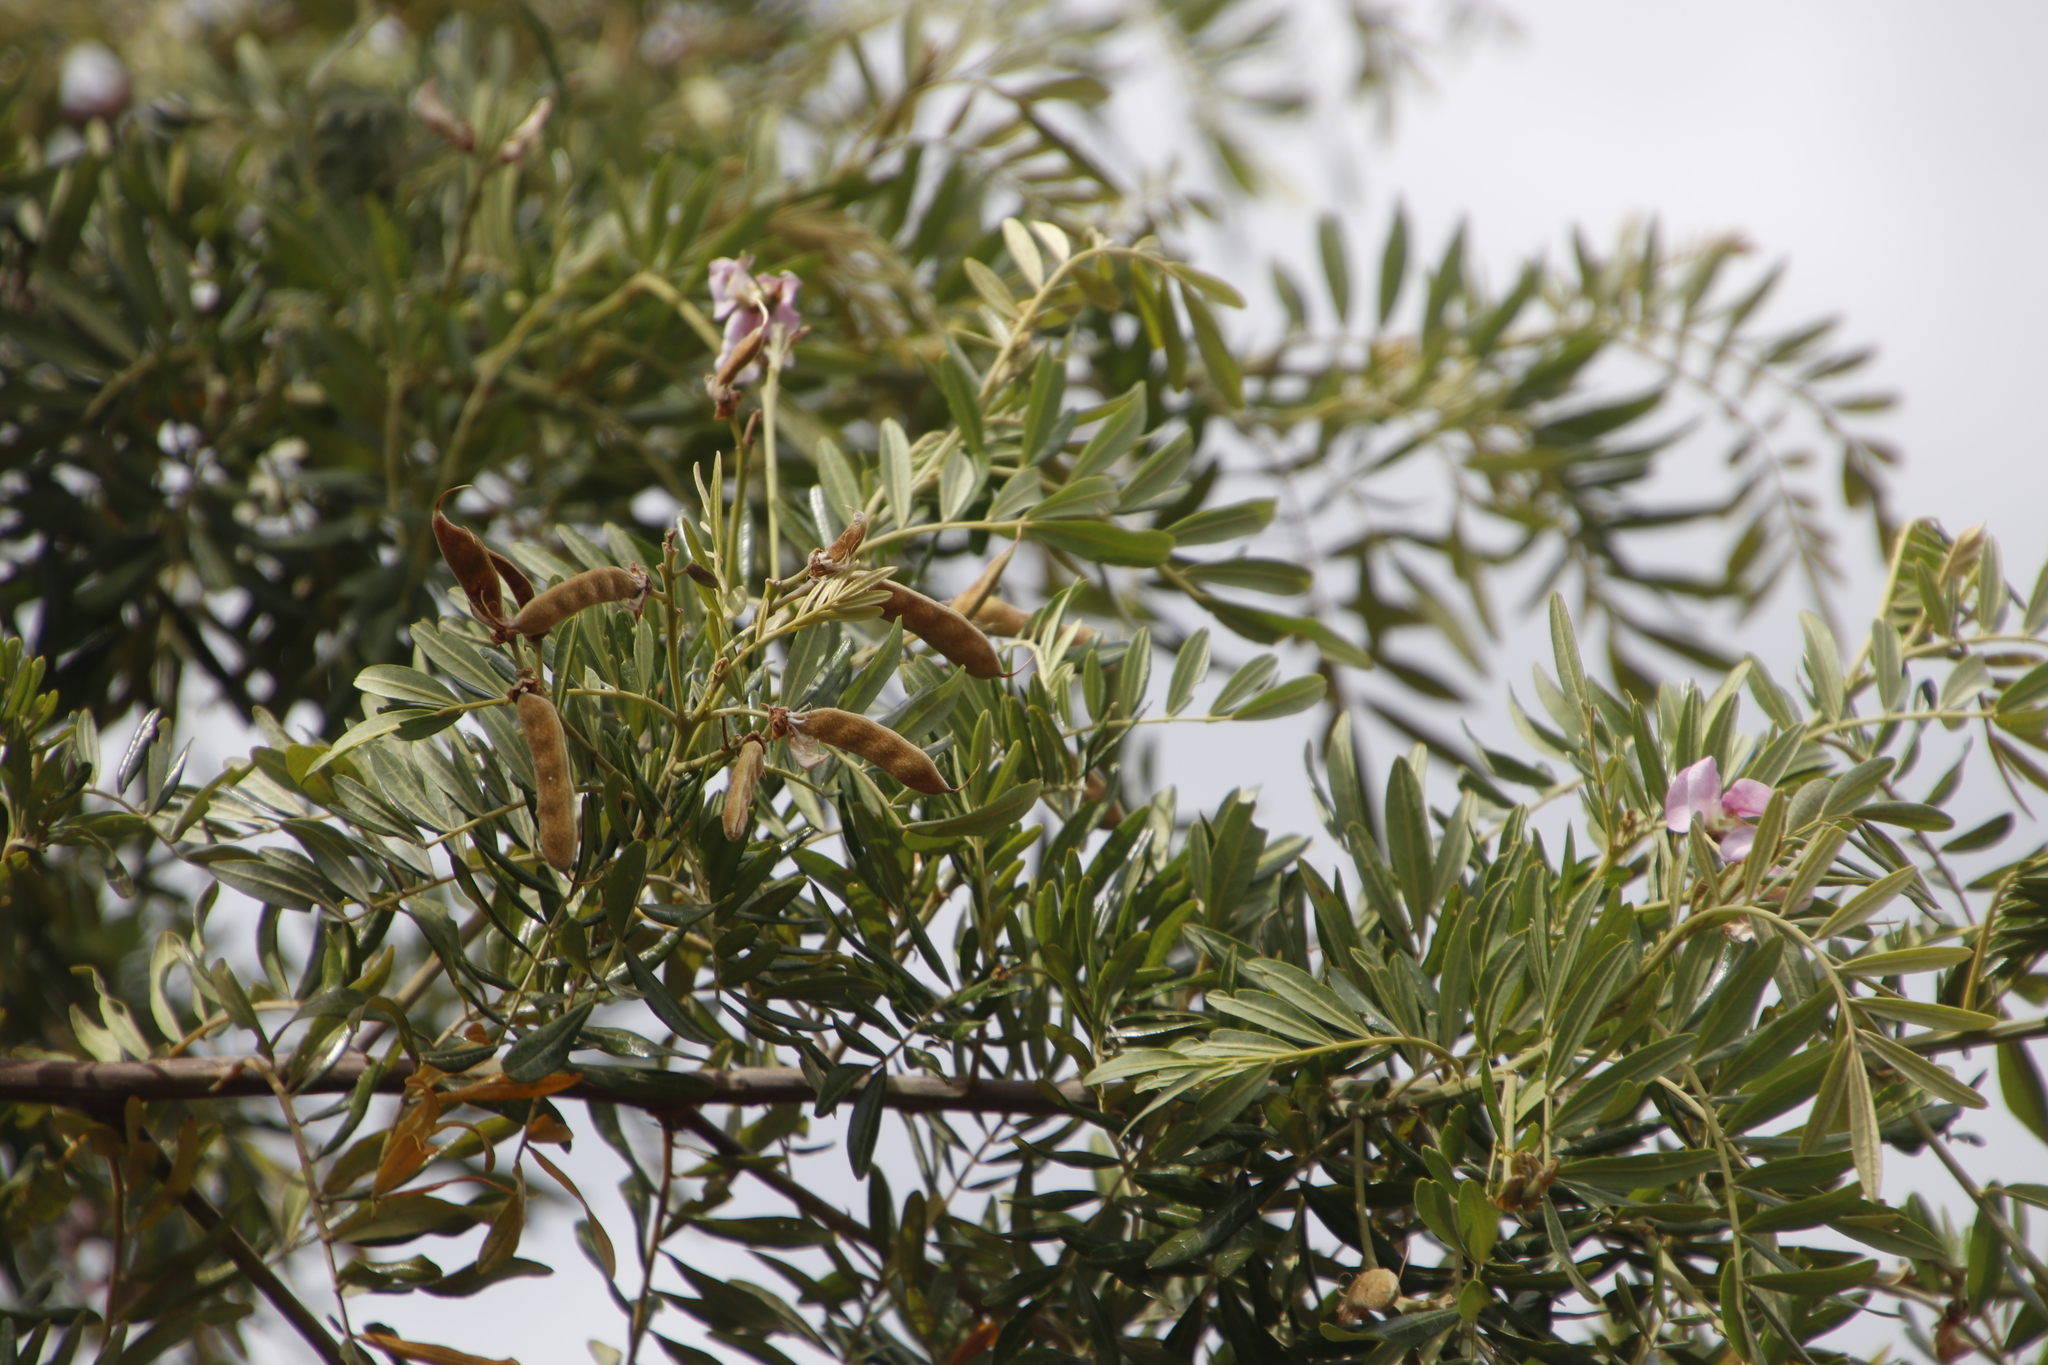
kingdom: Plantae
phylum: Tracheophyta
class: Magnoliopsida
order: Fabales
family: Fabaceae
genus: Virgilia
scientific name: Virgilia oroboides
